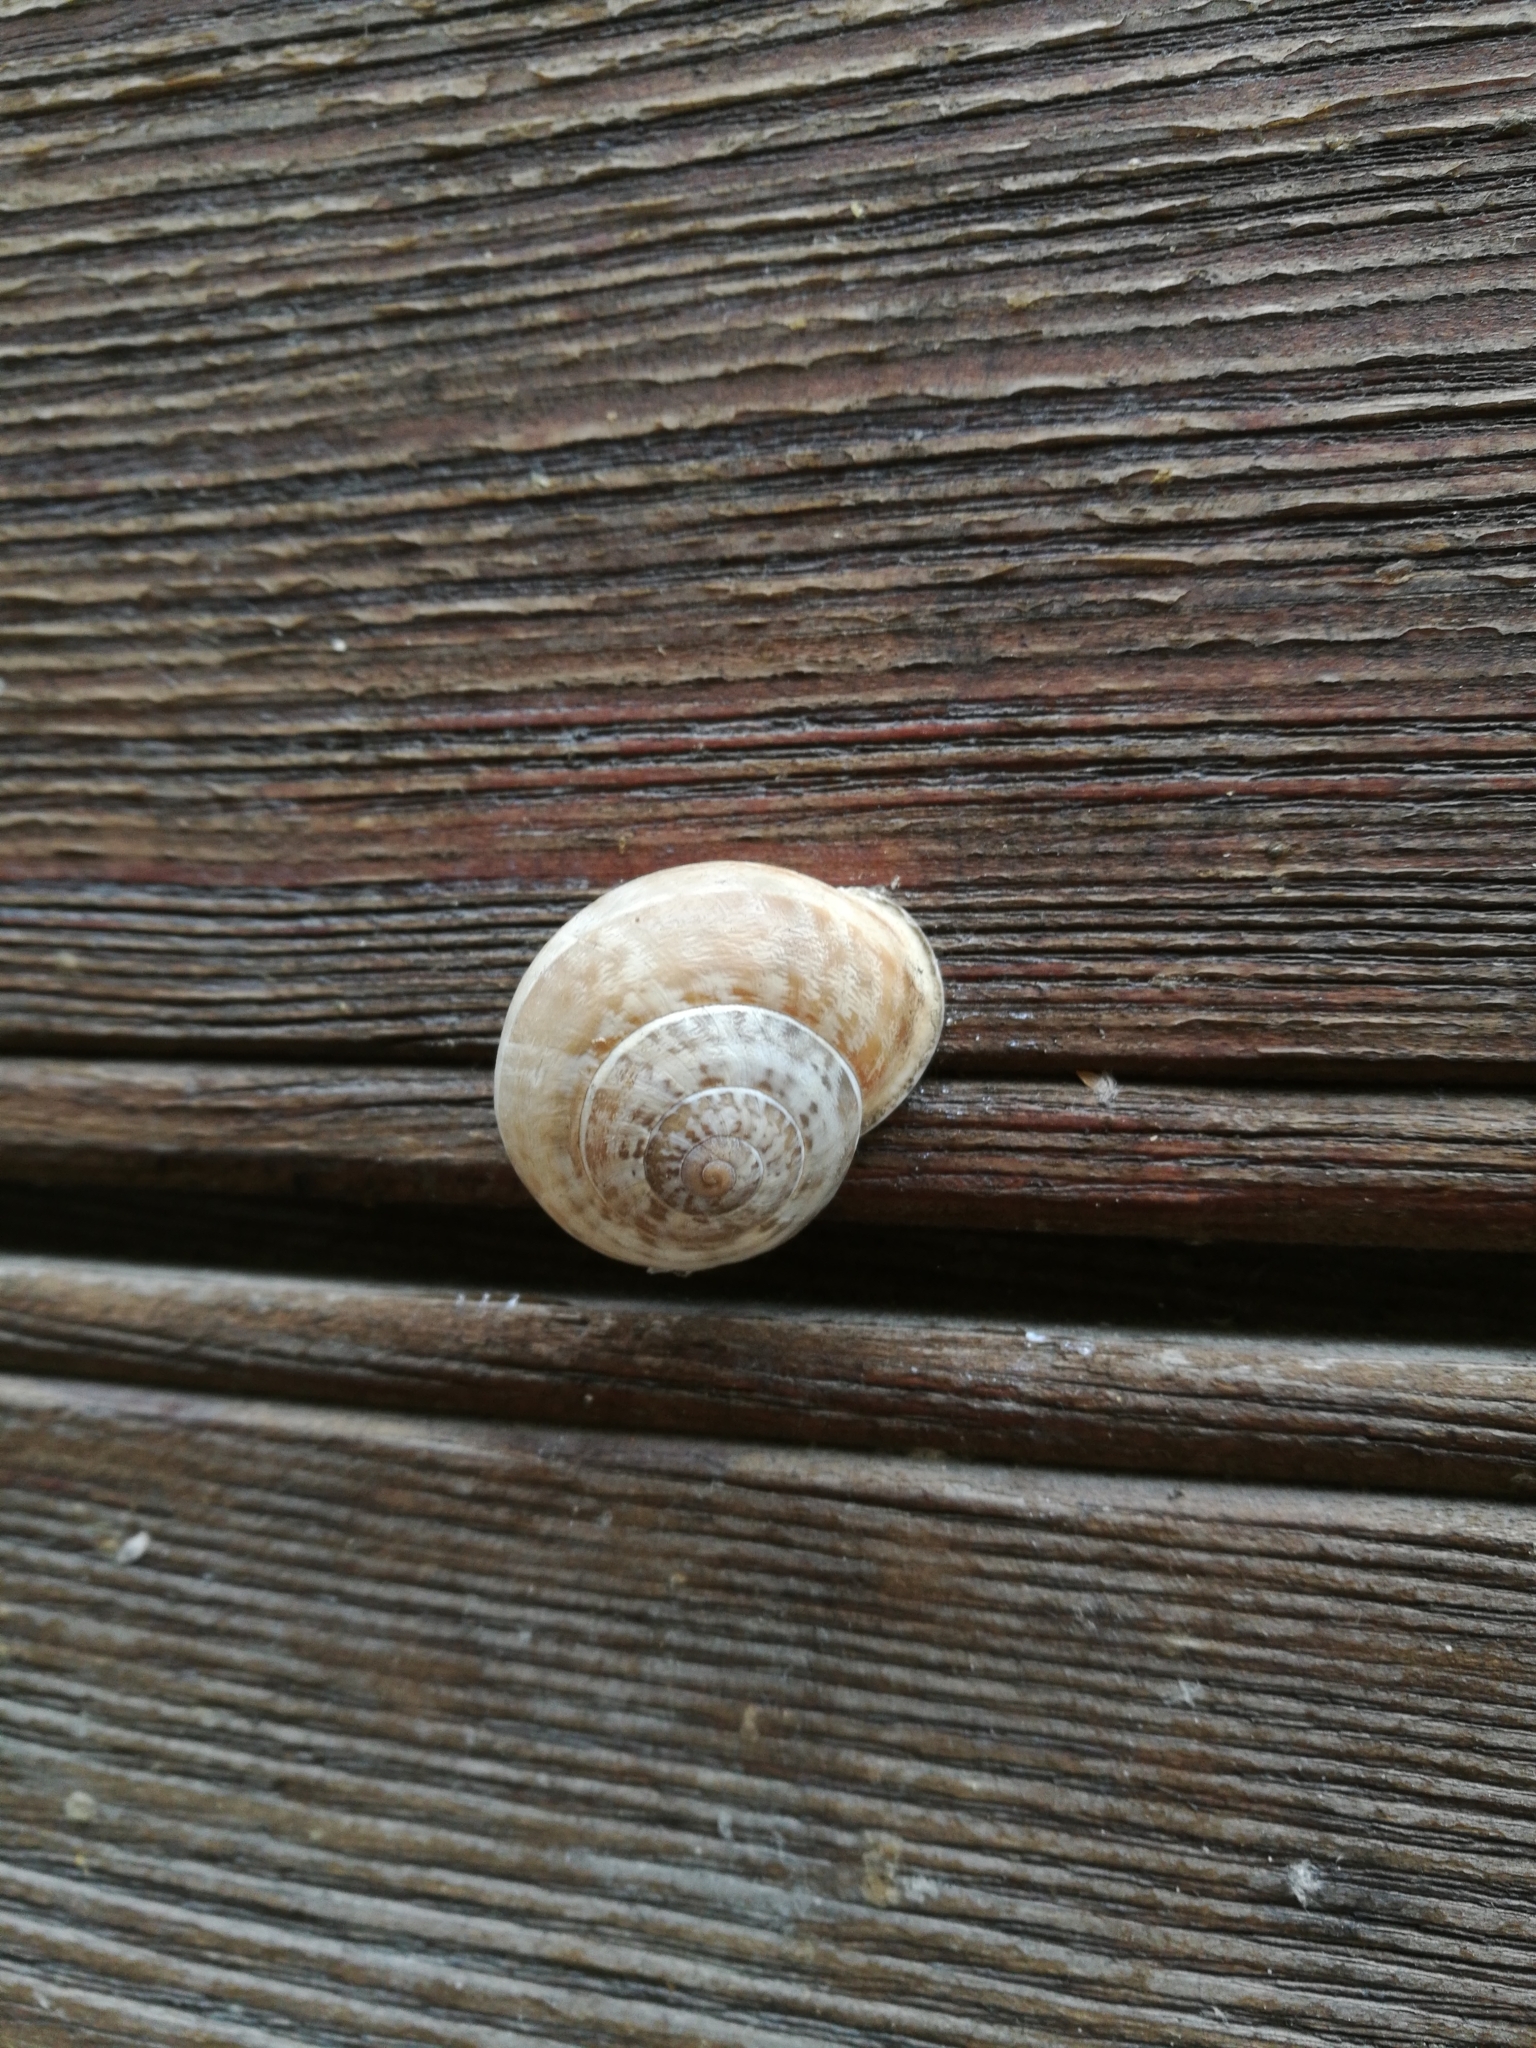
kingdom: Animalia
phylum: Mollusca
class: Gastropoda
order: Stylommatophora
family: Helicidae
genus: Eobania
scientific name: Eobania vermiculata
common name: Chocolateband snail
